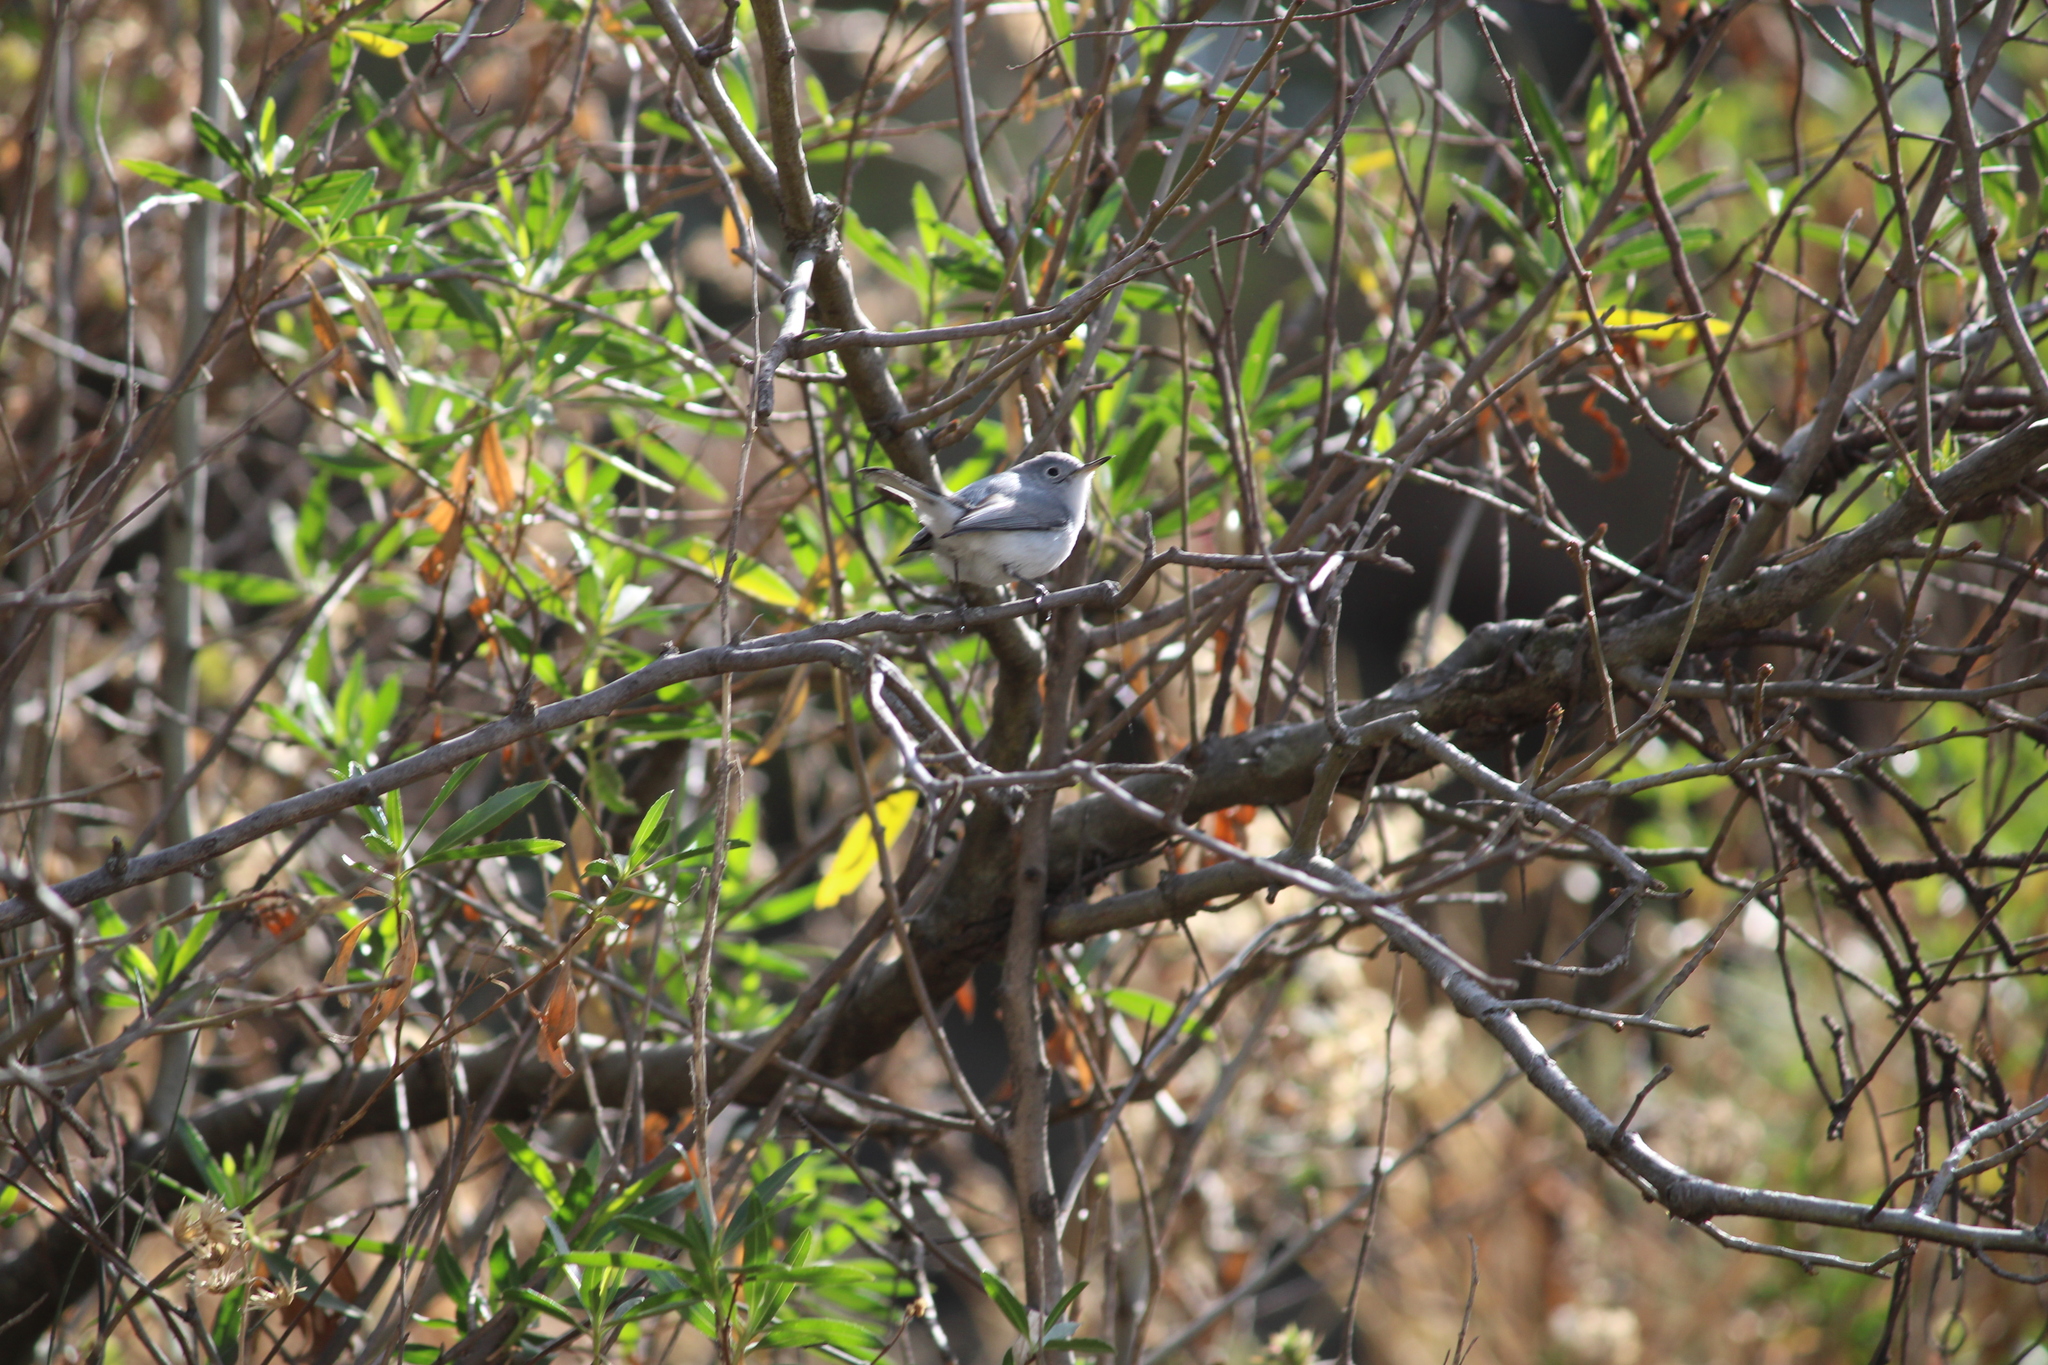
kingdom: Animalia
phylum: Chordata
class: Aves
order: Passeriformes
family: Polioptilidae
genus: Polioptila
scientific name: Polioptila caerulea
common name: Blue-gray gnatcatcher
